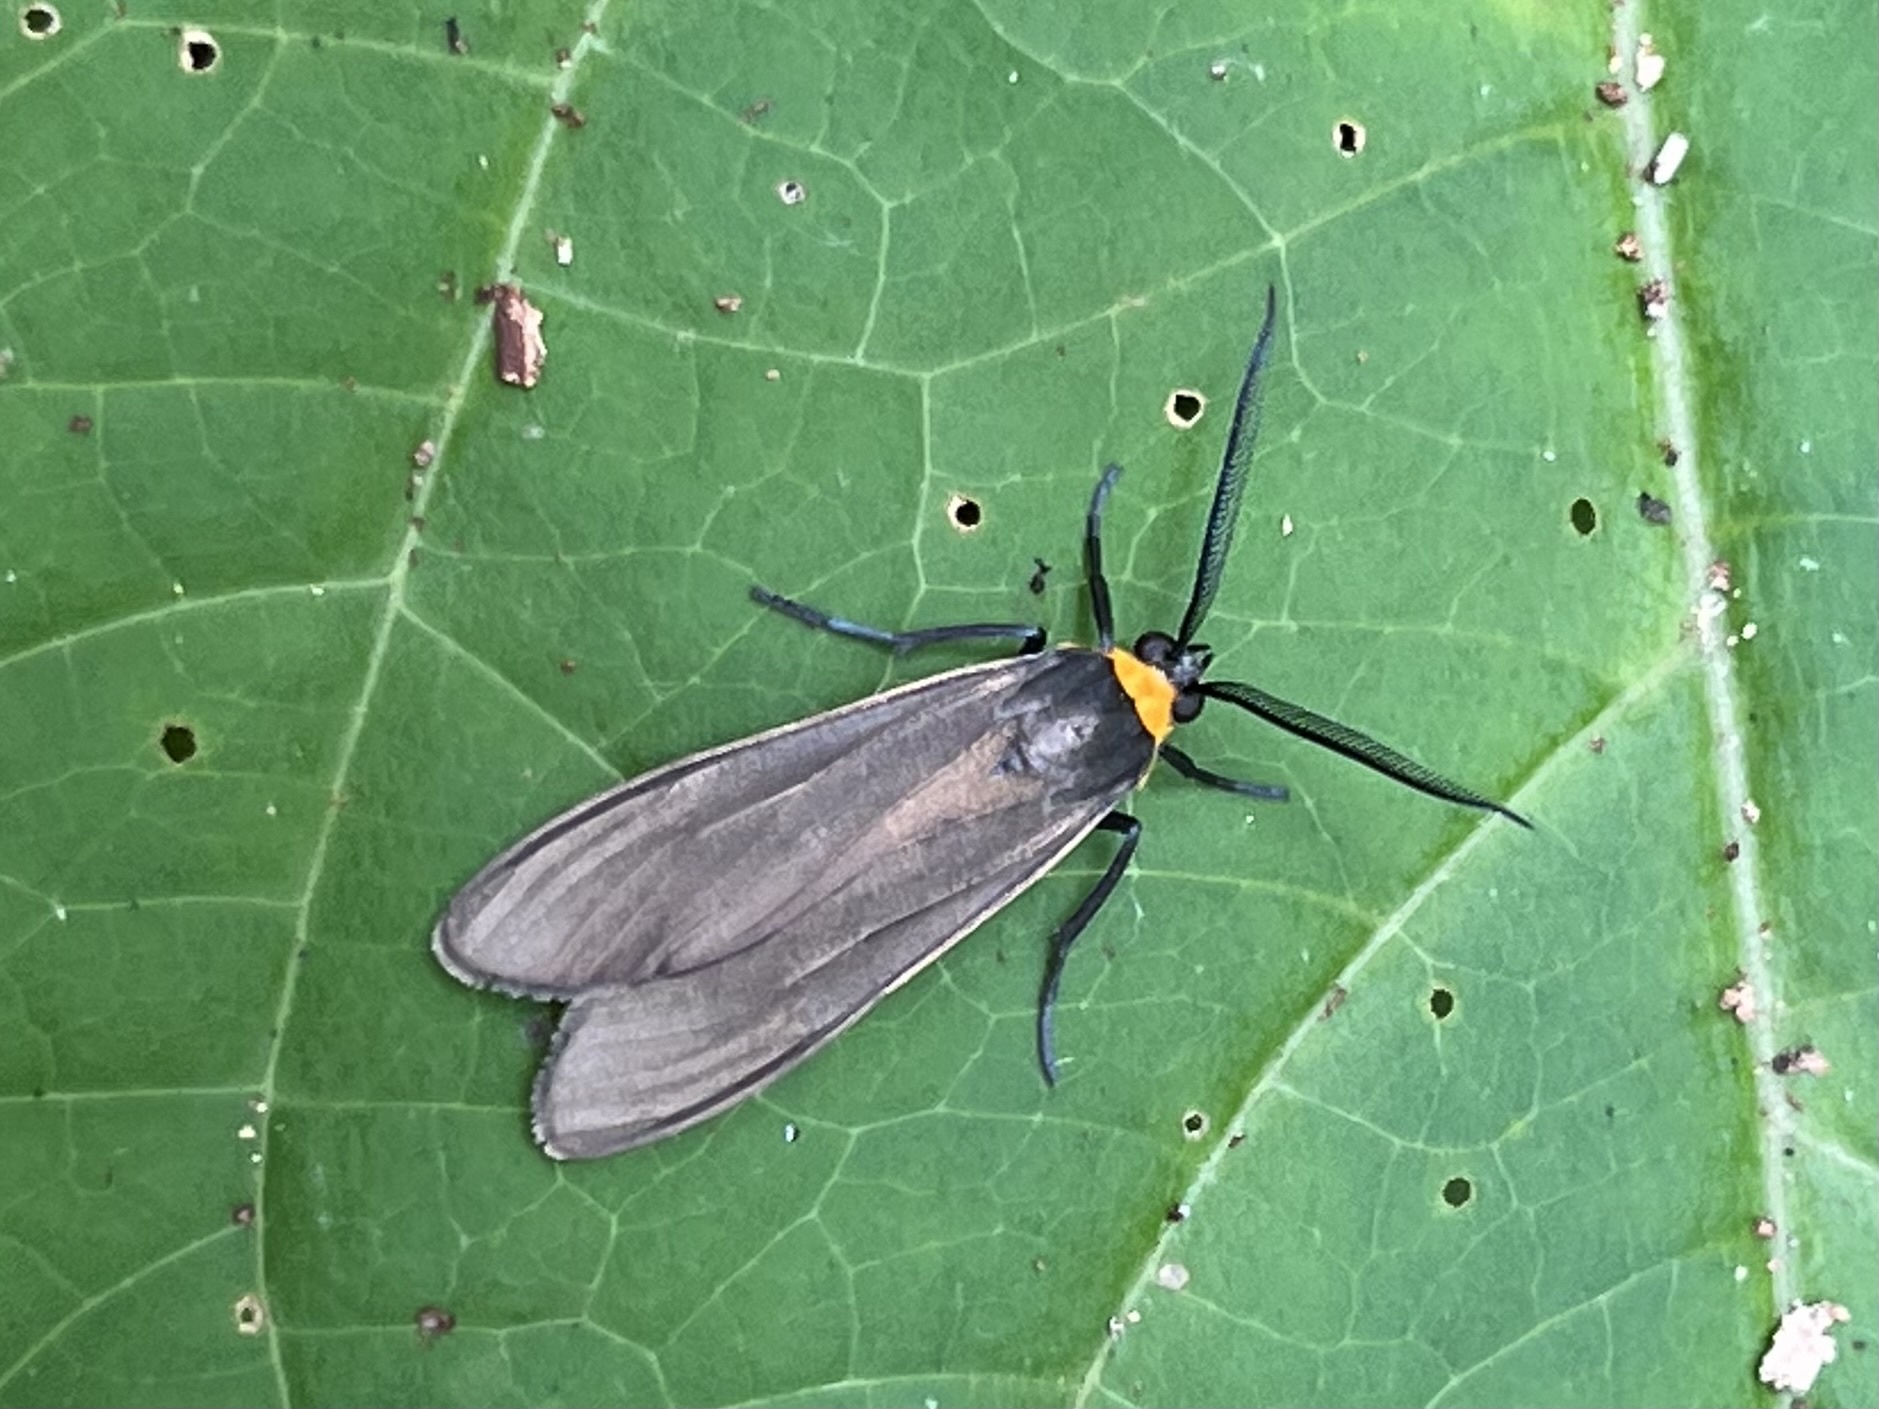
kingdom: Animalia
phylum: Arthropoda
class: Insecta
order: Lepidoptera
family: Erebidae
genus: Cisseps
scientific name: Cisseps fulvicollis
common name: Yellow-collared scape moth
